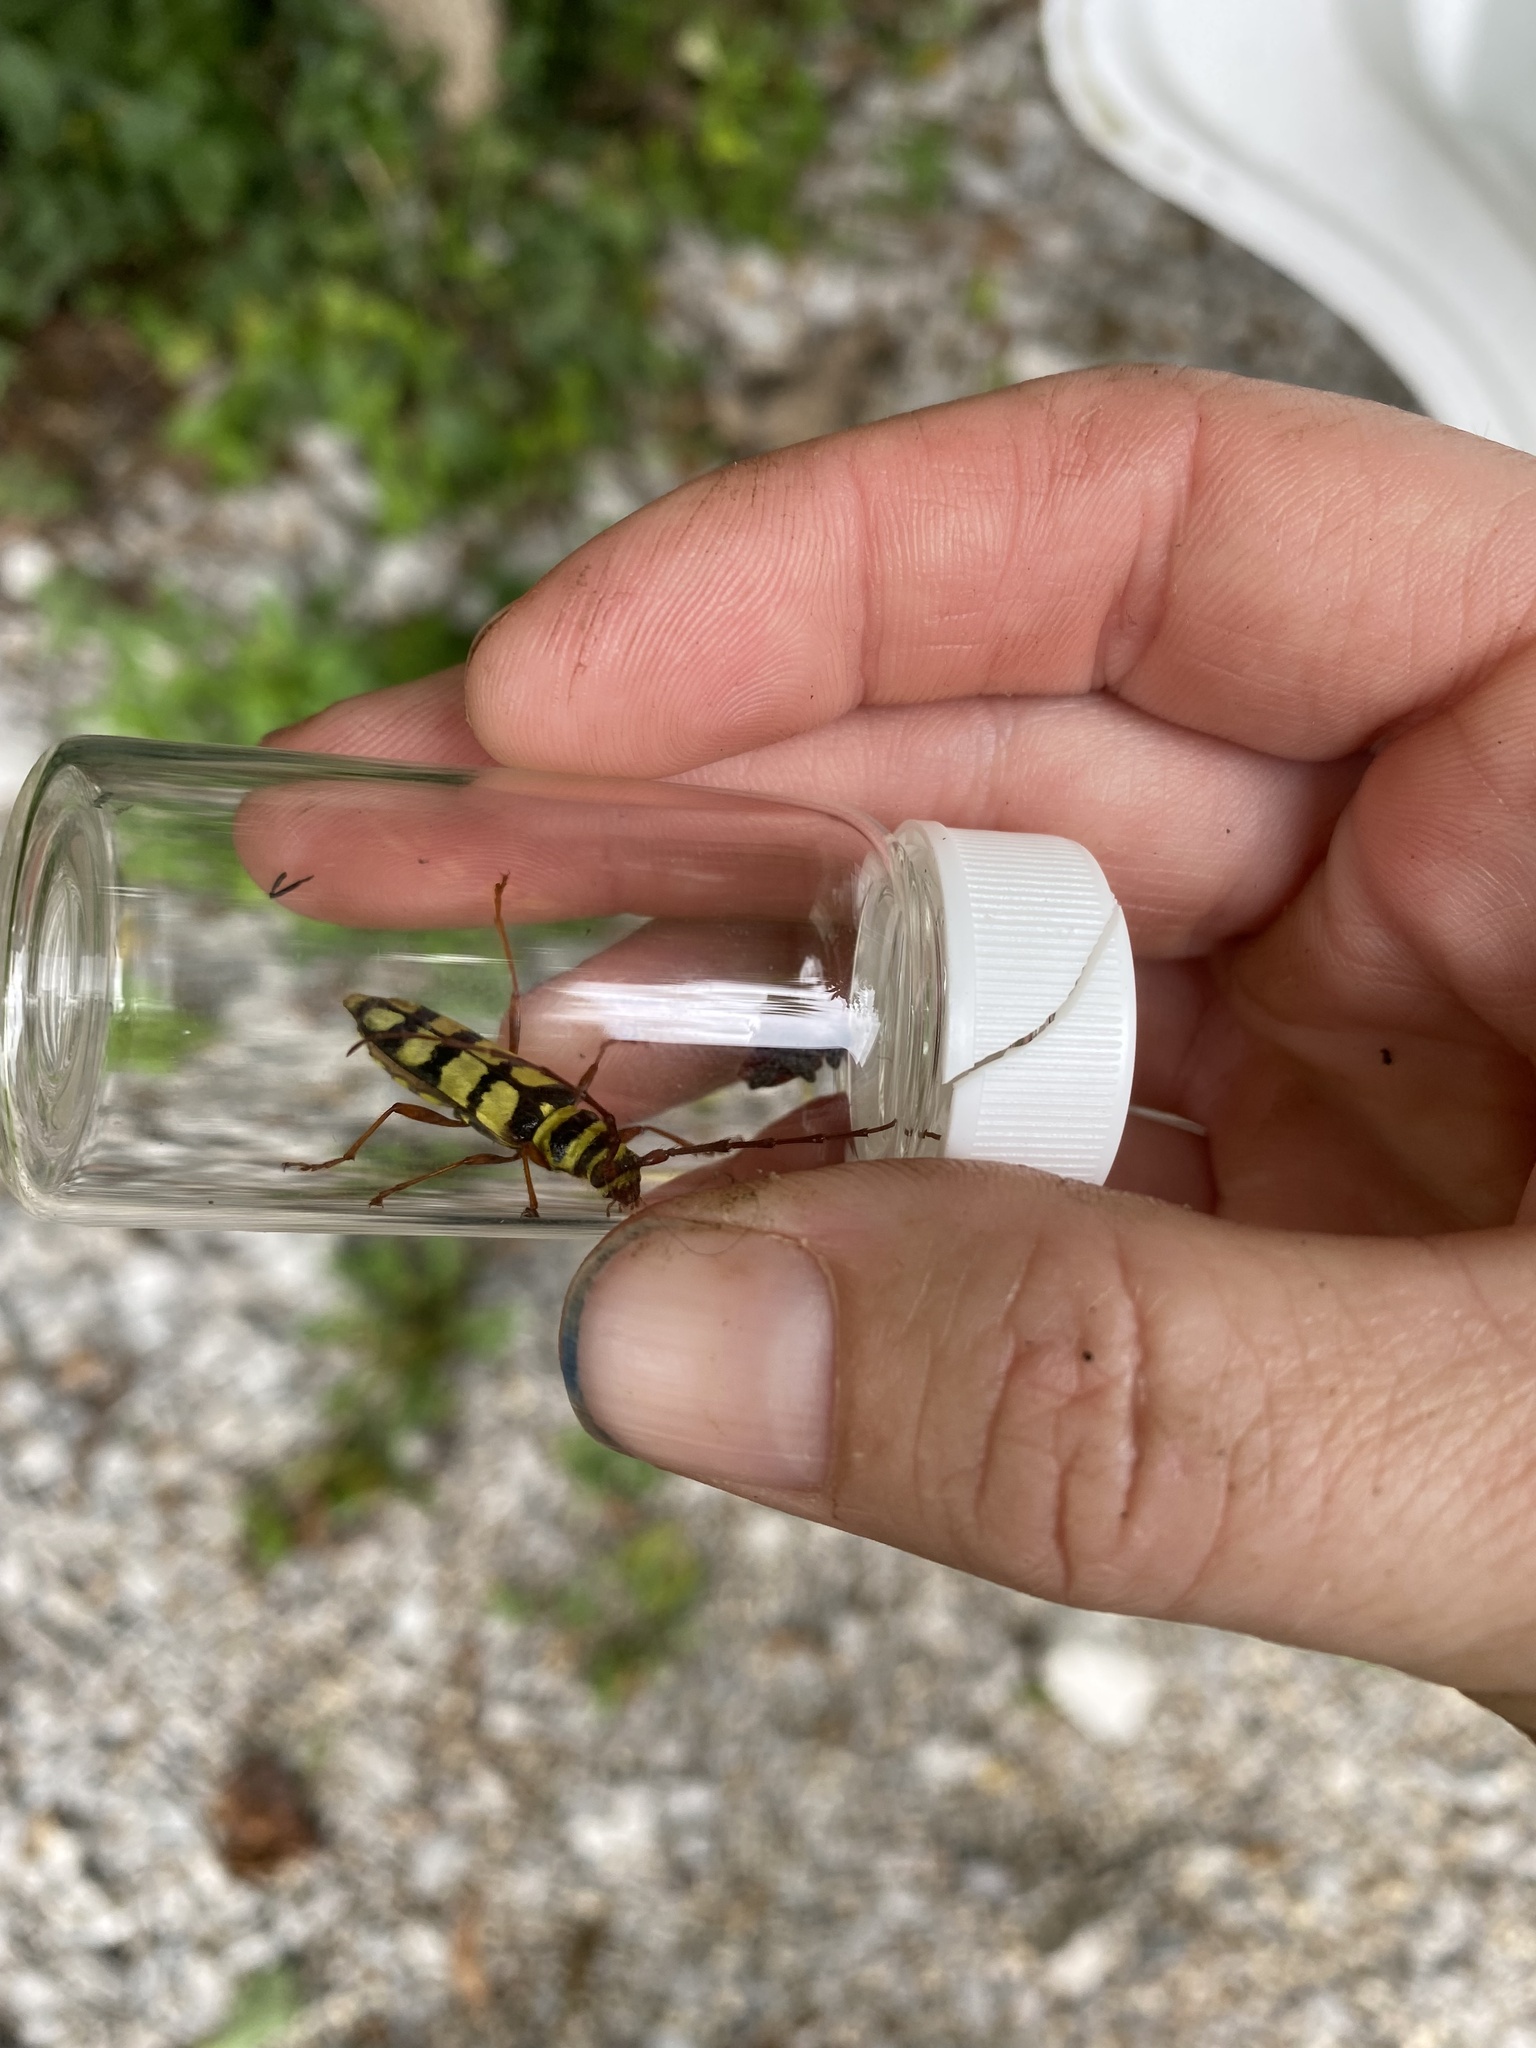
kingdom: Animalia
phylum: Arthropoda
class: Insecta
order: Coleoptera
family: Cerambycidae
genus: Dryobius
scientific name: Dryobius sexnotatus
